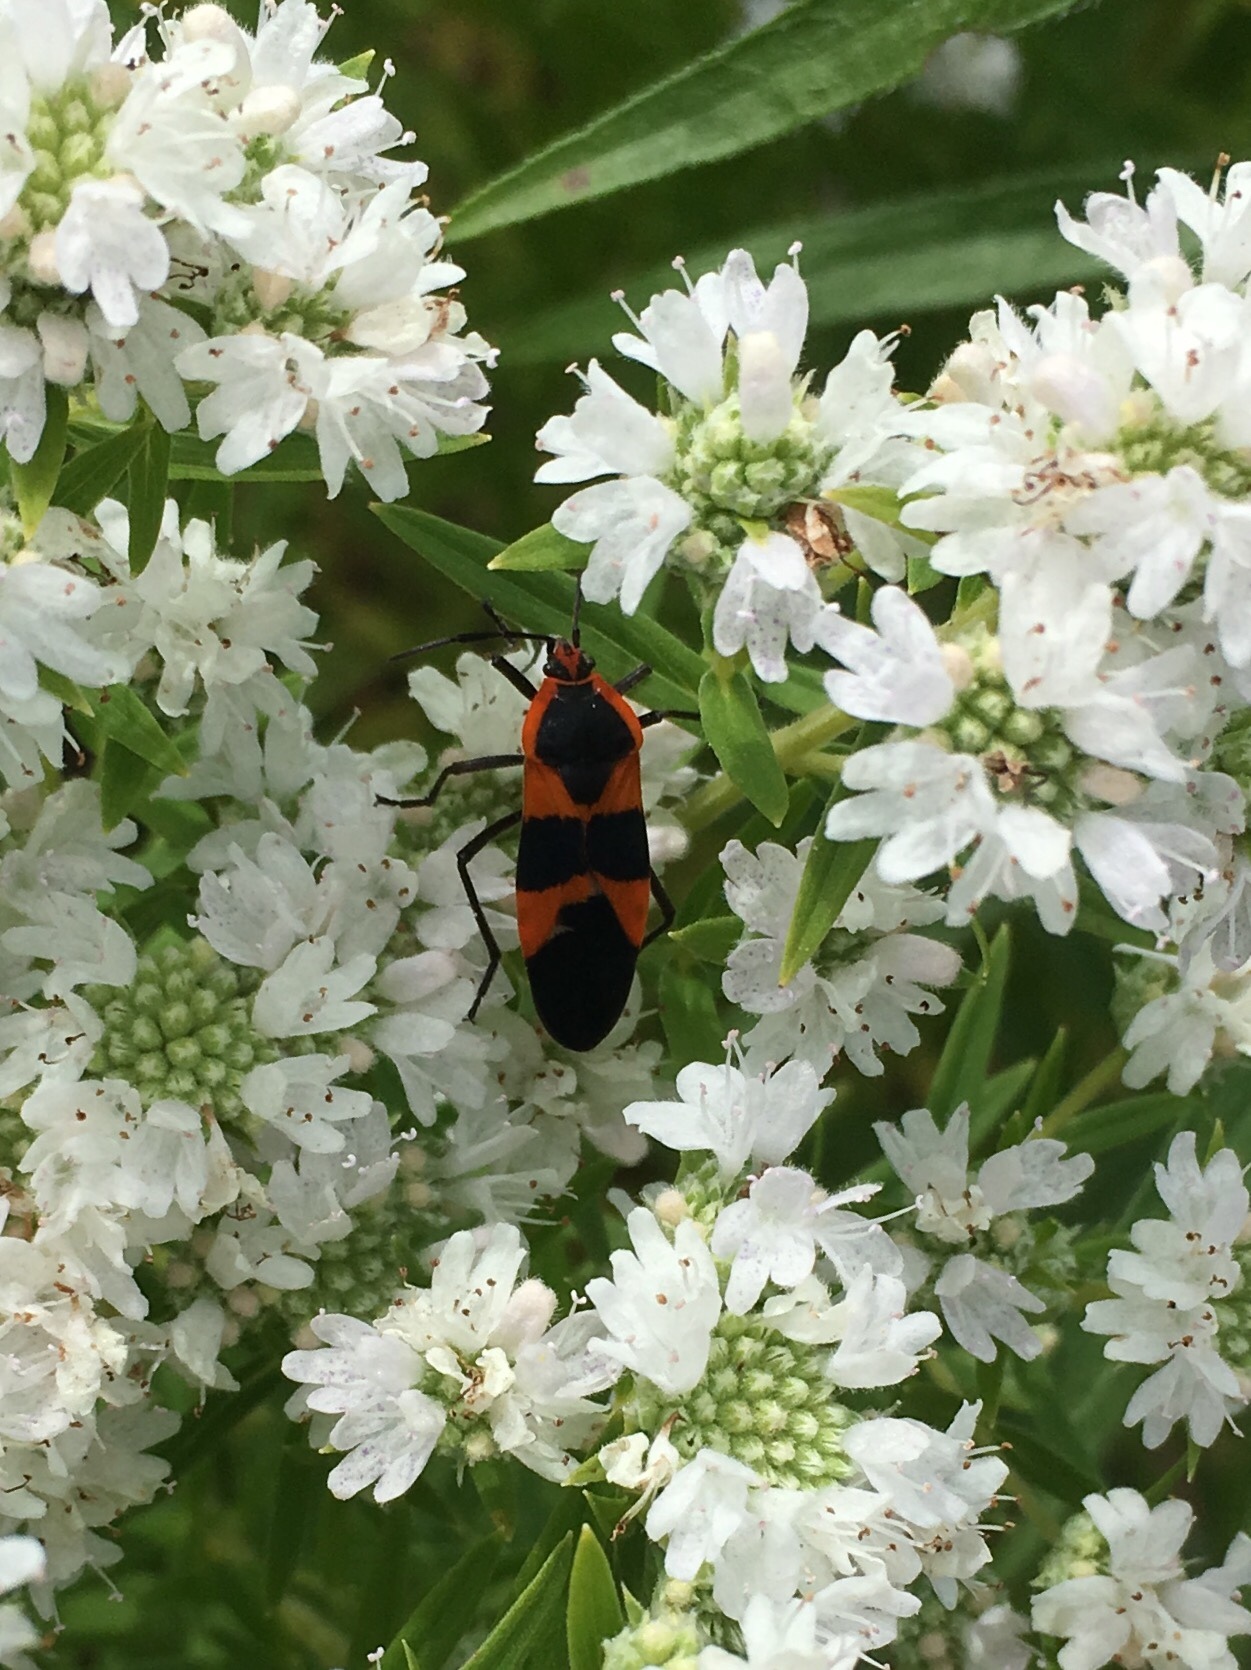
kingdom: Animalia
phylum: Arthropoda
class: Insecta
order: Hemiptera
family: Lygaeidae
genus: Oncopeltus
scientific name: Oncopeltus fasciatus
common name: Large milkweed bug
